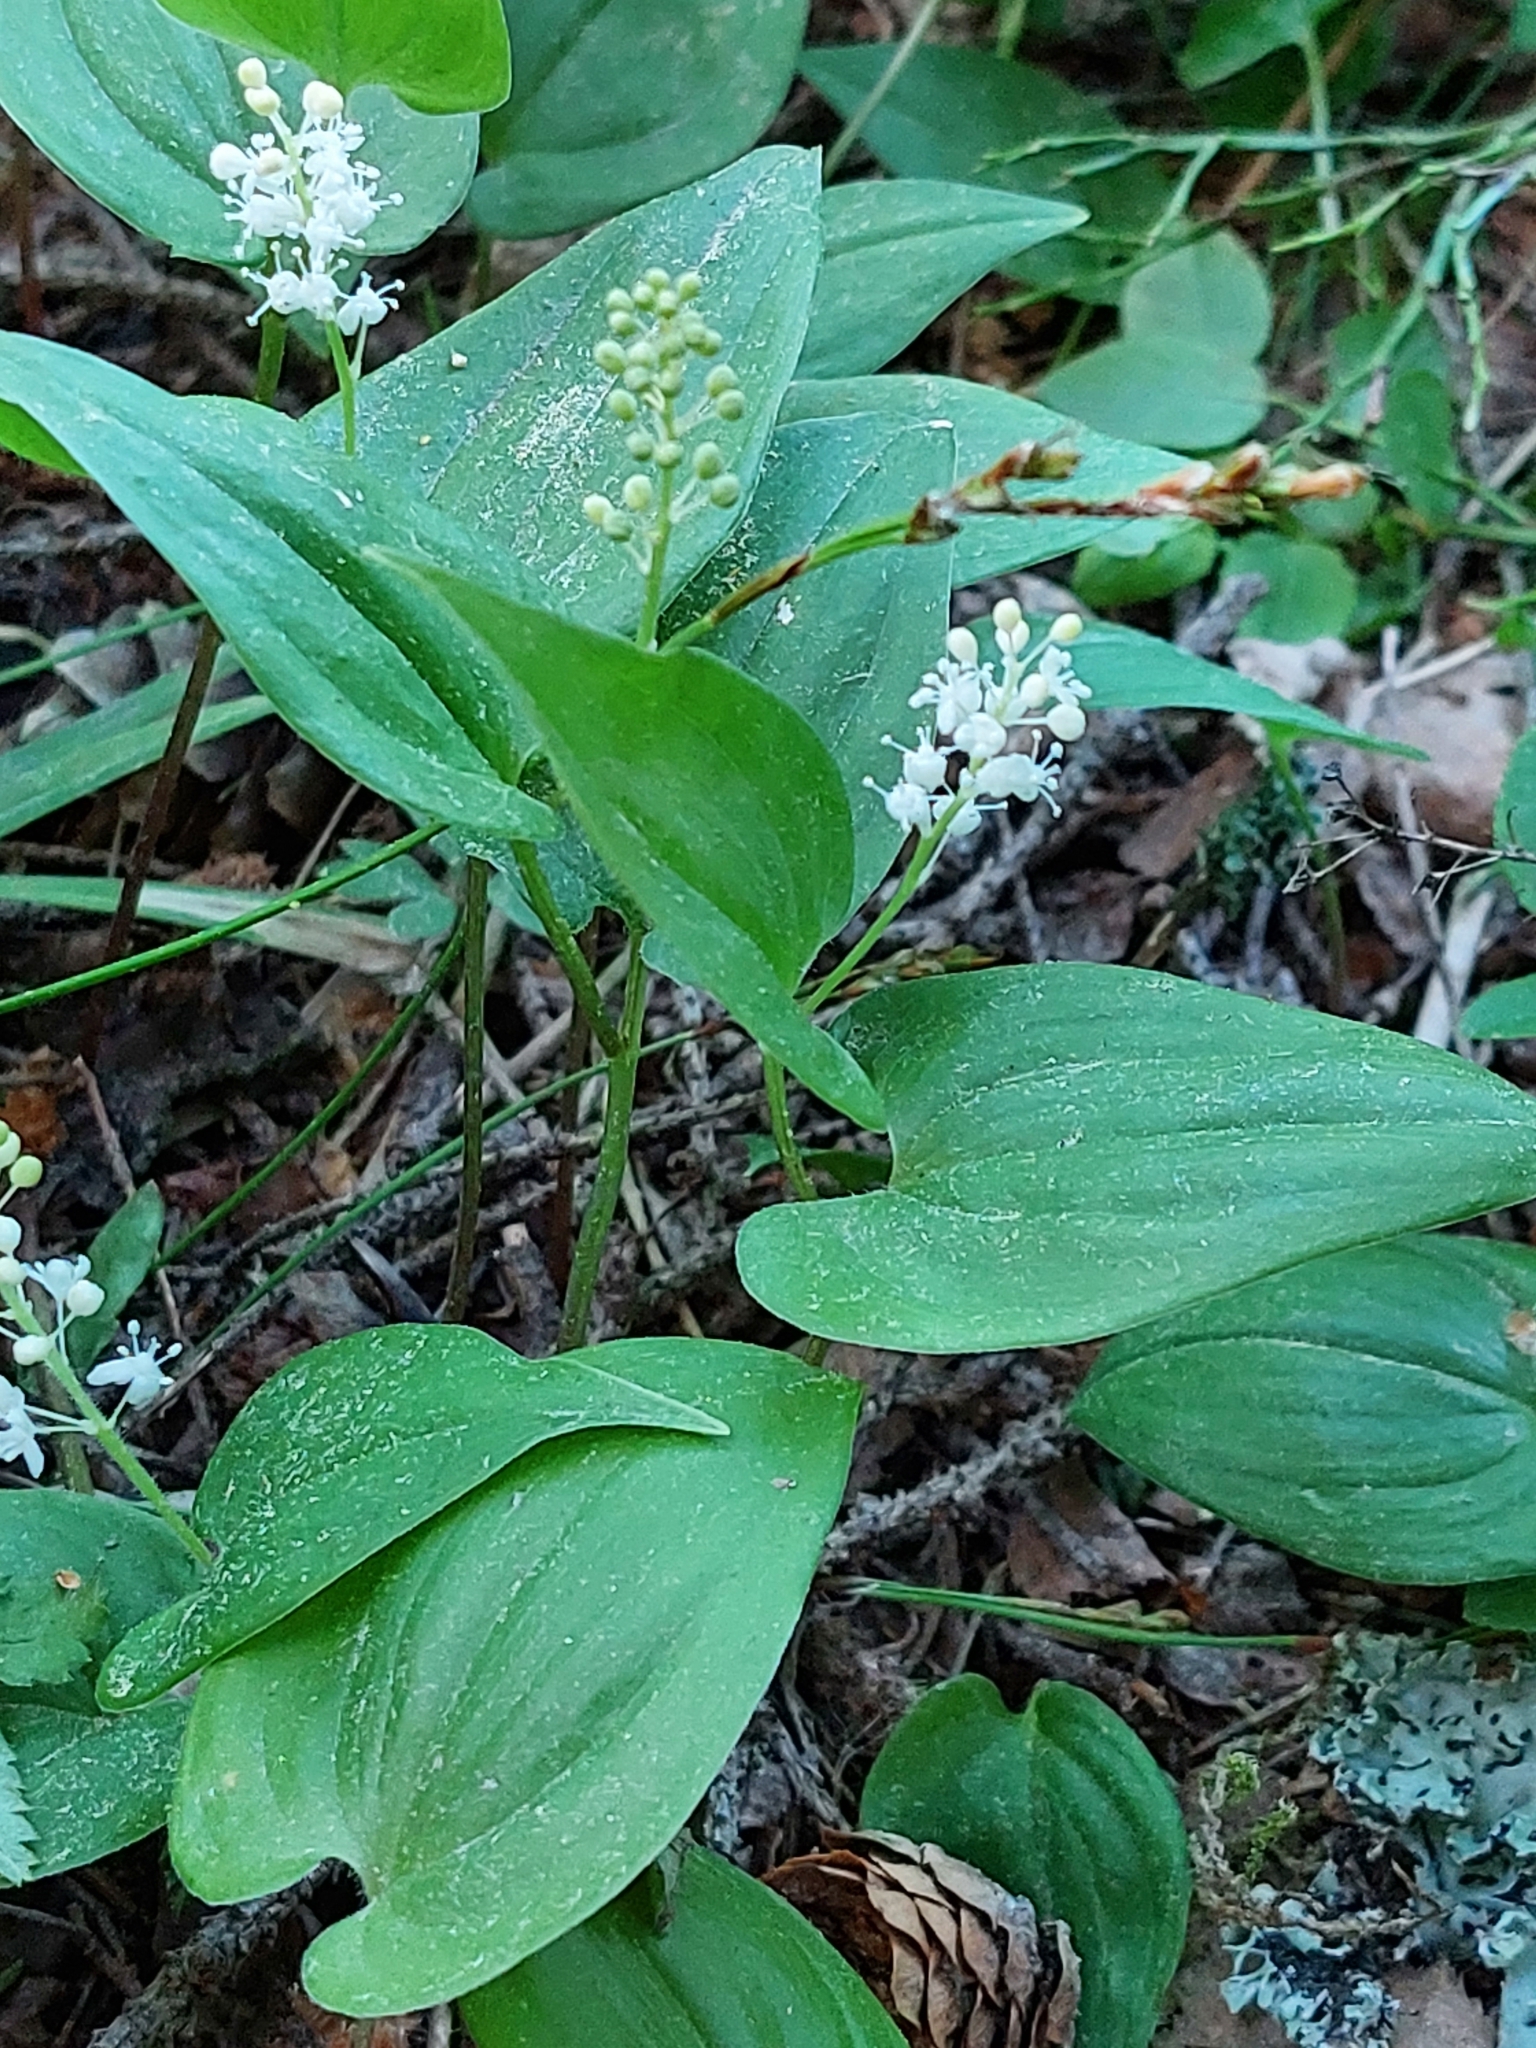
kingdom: Plantae
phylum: Tracheophyta
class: Liliopsida
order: Asparagales
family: Asparagaceae
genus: Maianthemum
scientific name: Maianthemum bifolium
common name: May lily
